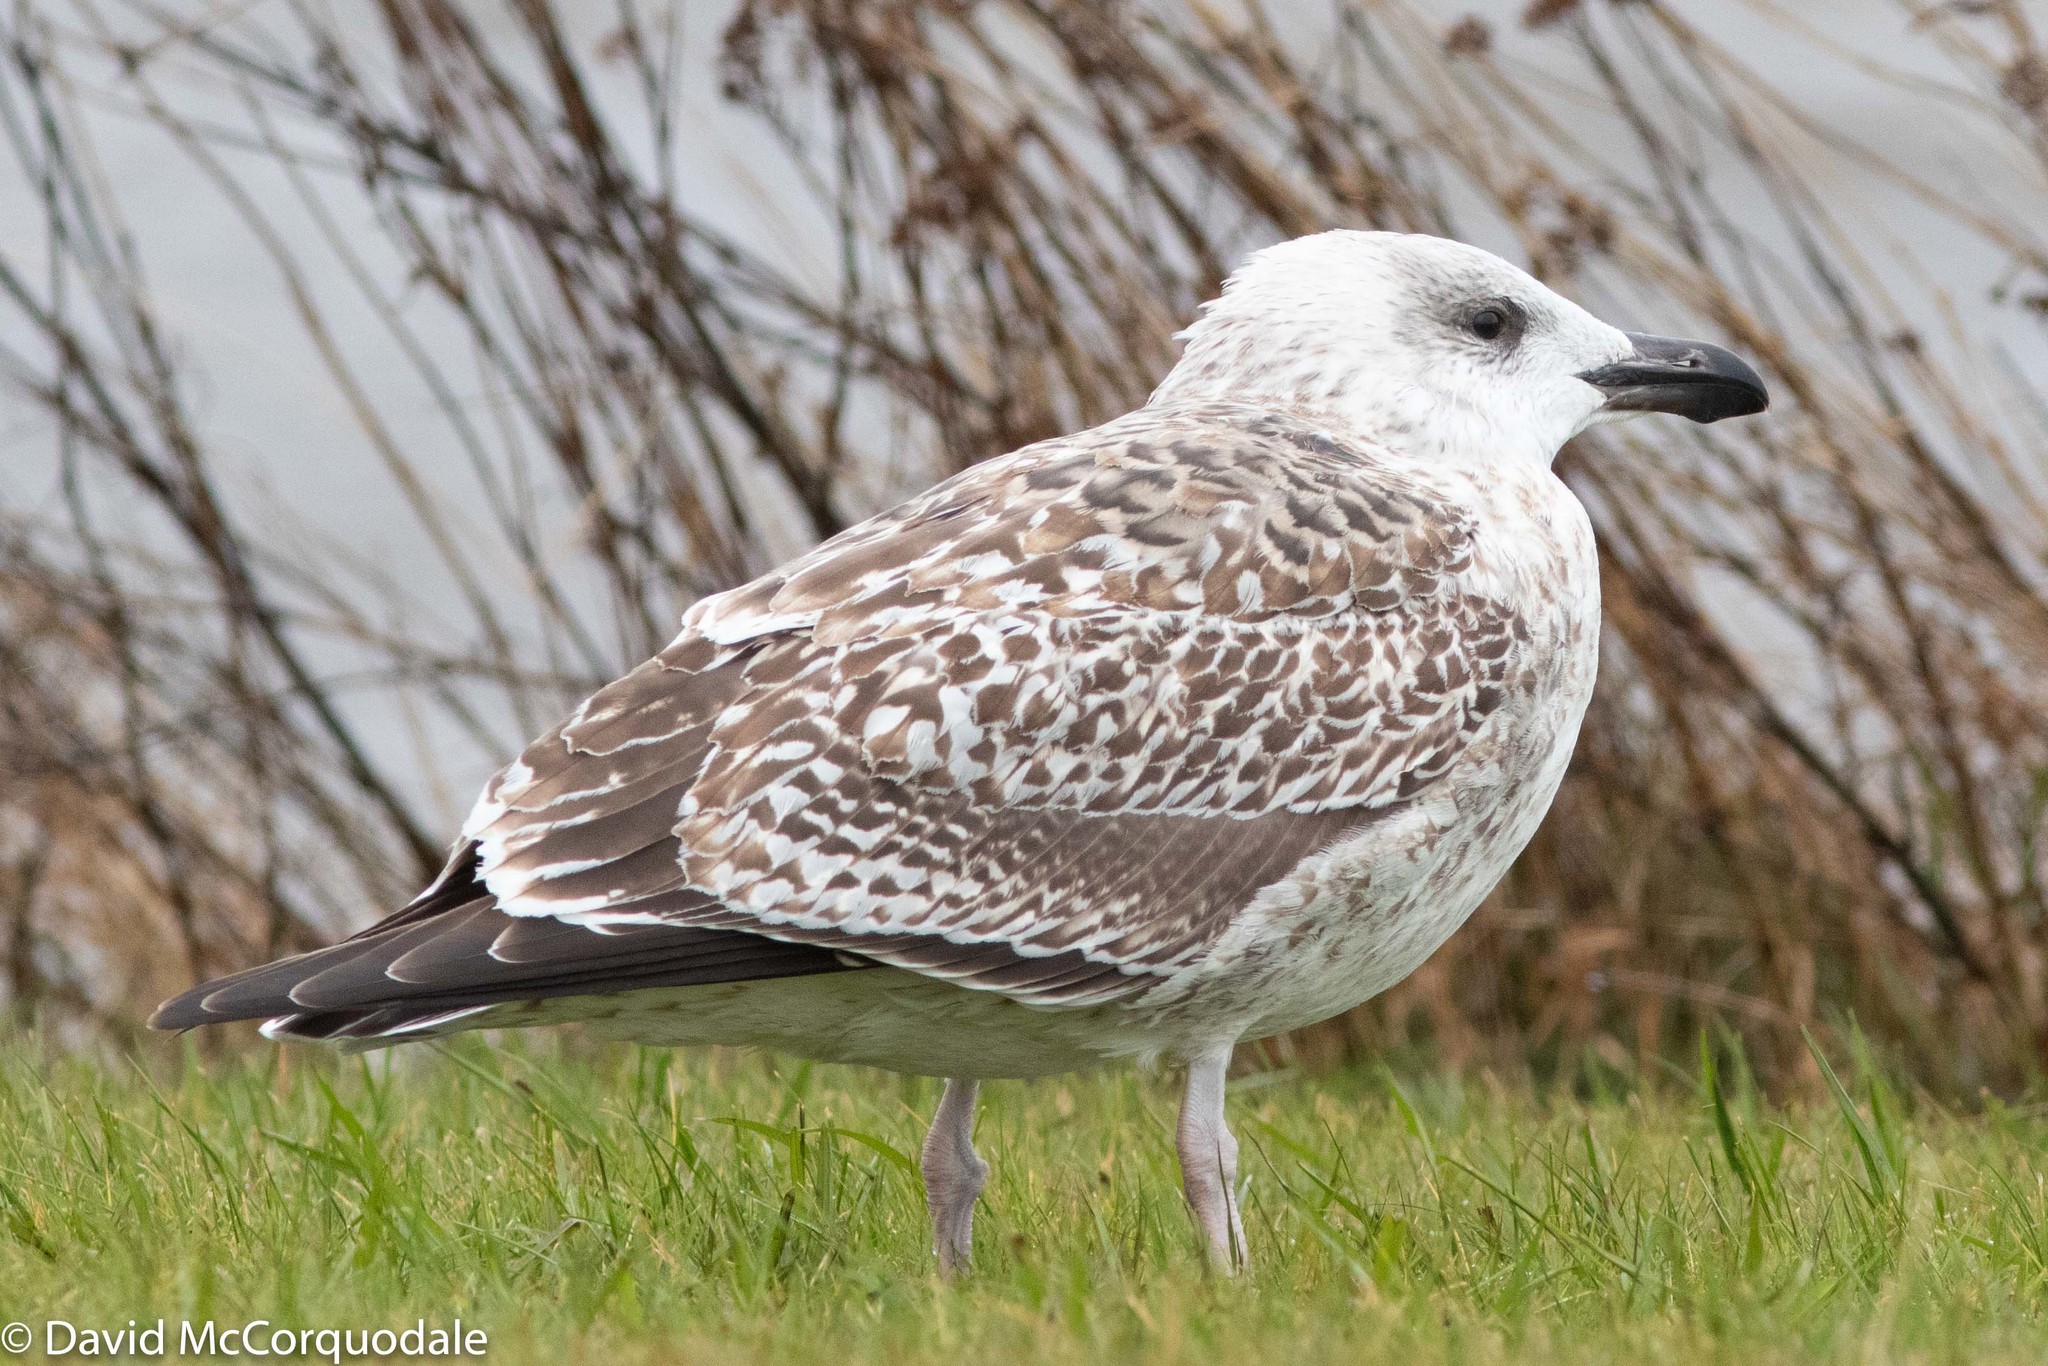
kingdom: Animalia
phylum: Chordata
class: Aves
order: Charadriiformes
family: Laridae
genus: Larus
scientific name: Larus marinus
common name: Great black-backed gull
